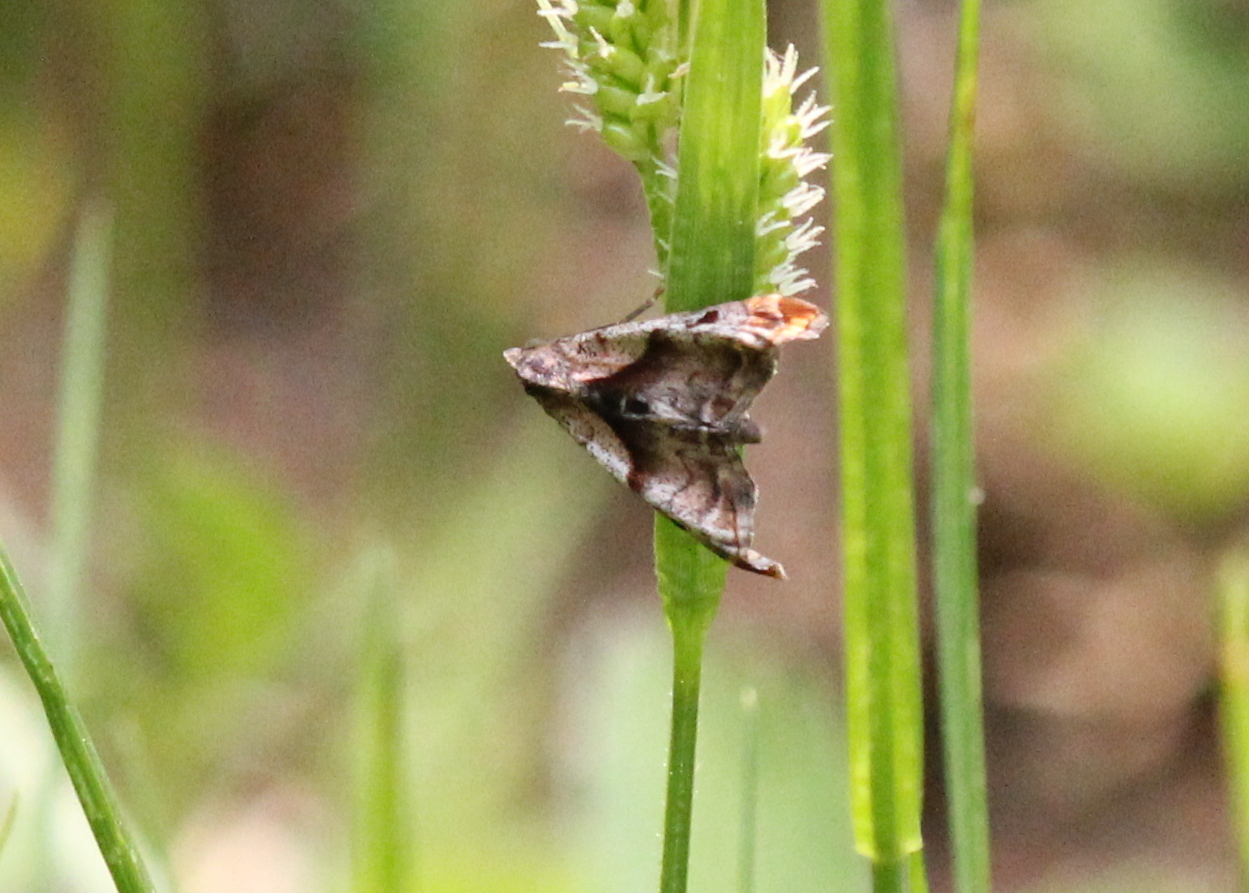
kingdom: Animalia
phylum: Arthropoda
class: Insecta
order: Lepidoptera
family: Erebidae
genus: Palthis
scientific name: Palthis angulalis
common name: Dark-spotted palthis moth
